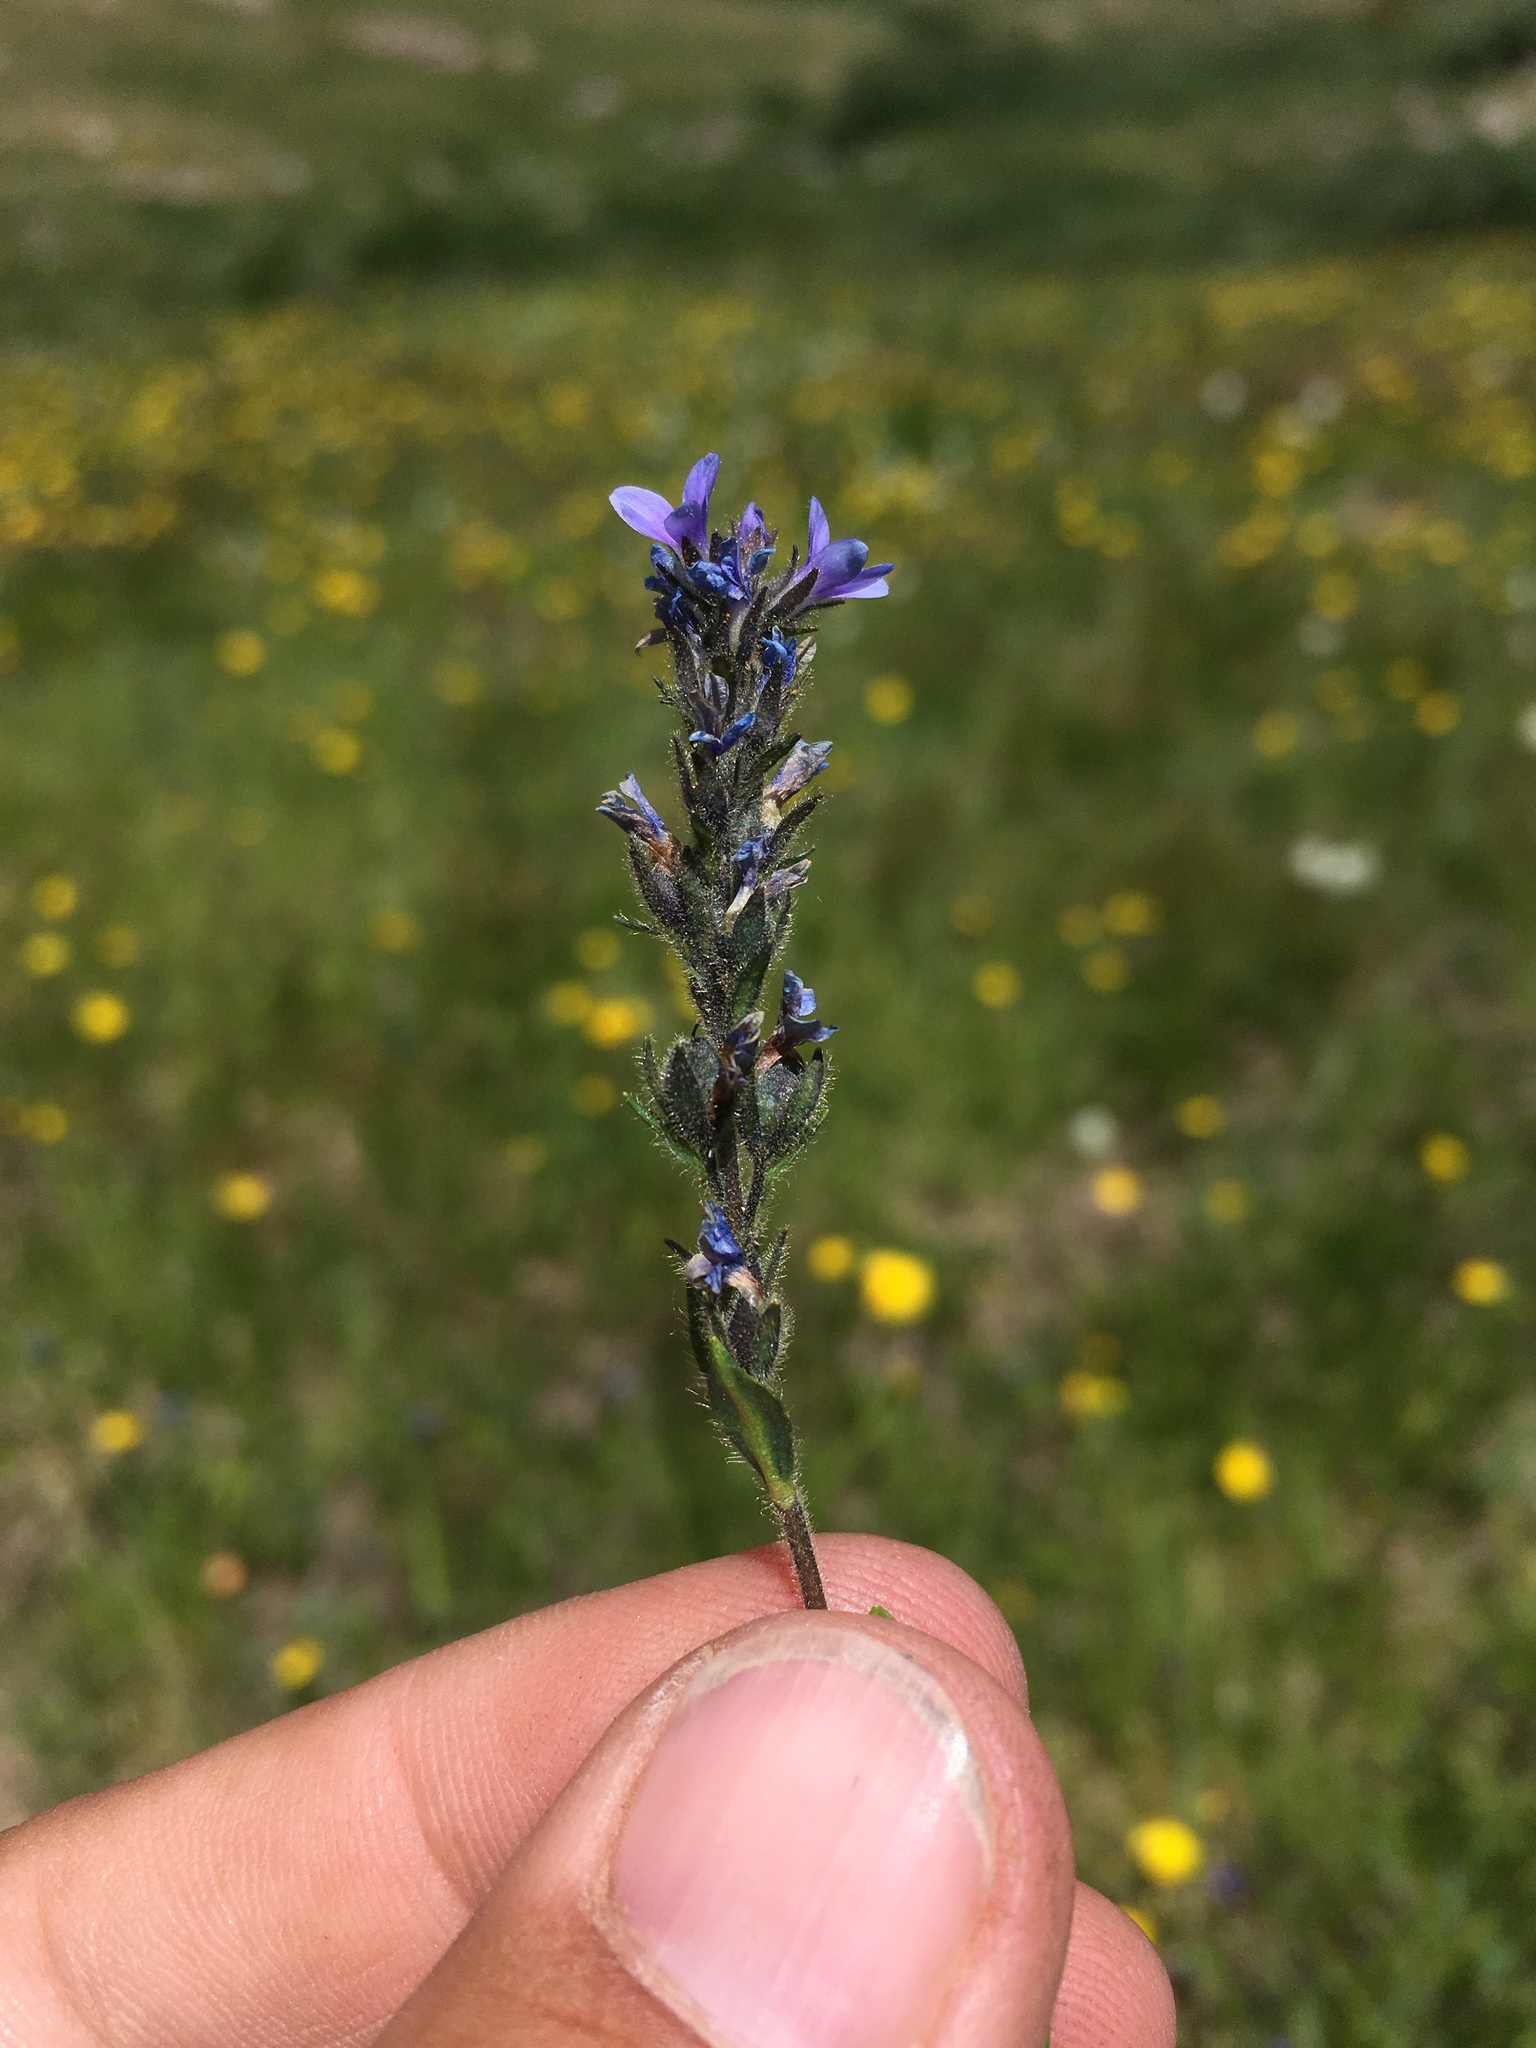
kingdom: Plantae
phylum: Tracheophyta
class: Magnoliopsida
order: Lamiales
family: Plantaginaceae
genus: Veronica
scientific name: Veronica wormskjoldii
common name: American alpine speedwell
